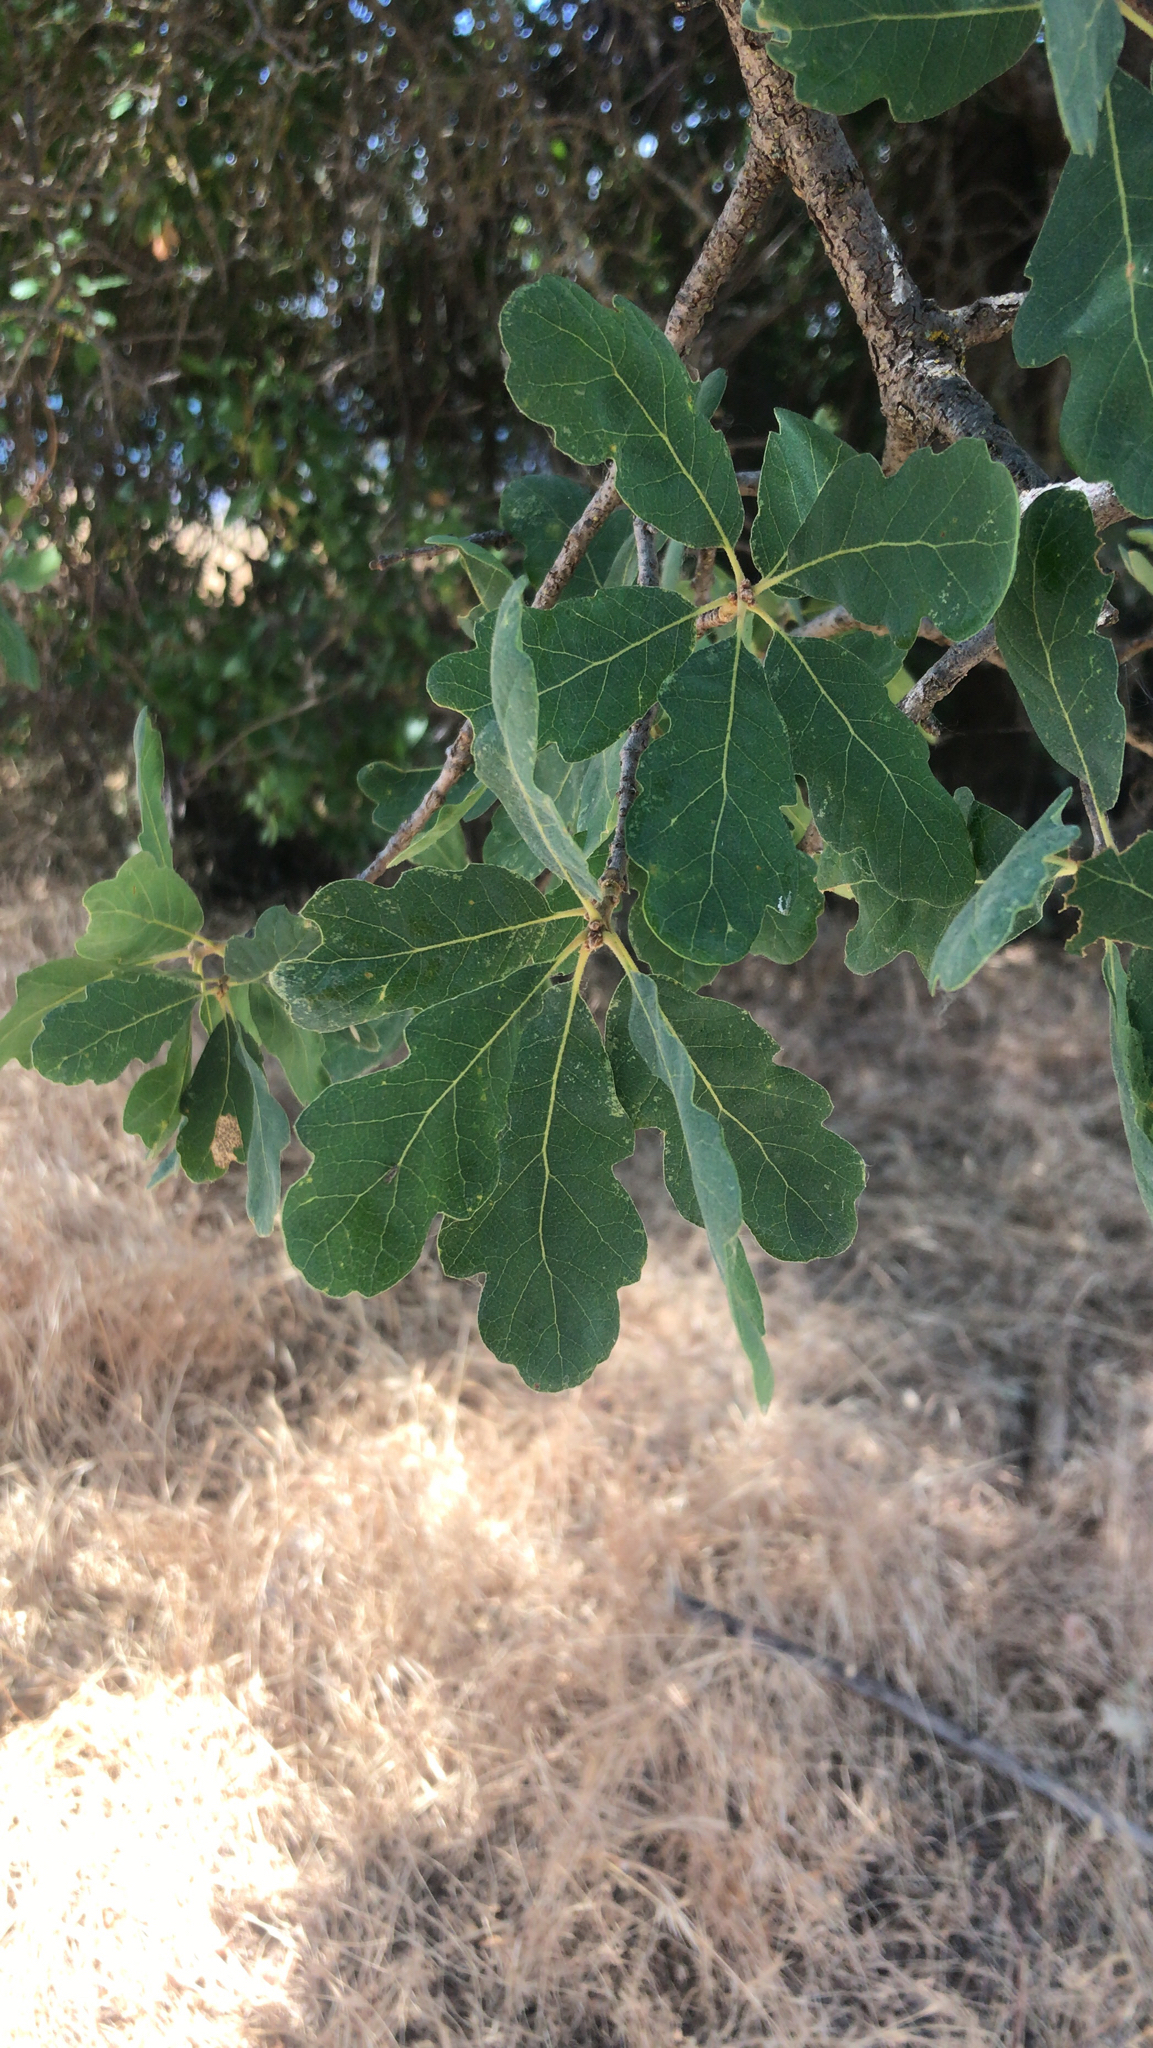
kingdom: Plantae
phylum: Tracheophyta
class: Magnoliopsida
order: Fagales
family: Fagaceae
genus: Quercus
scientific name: Quercus douglasii
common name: Blue oak
